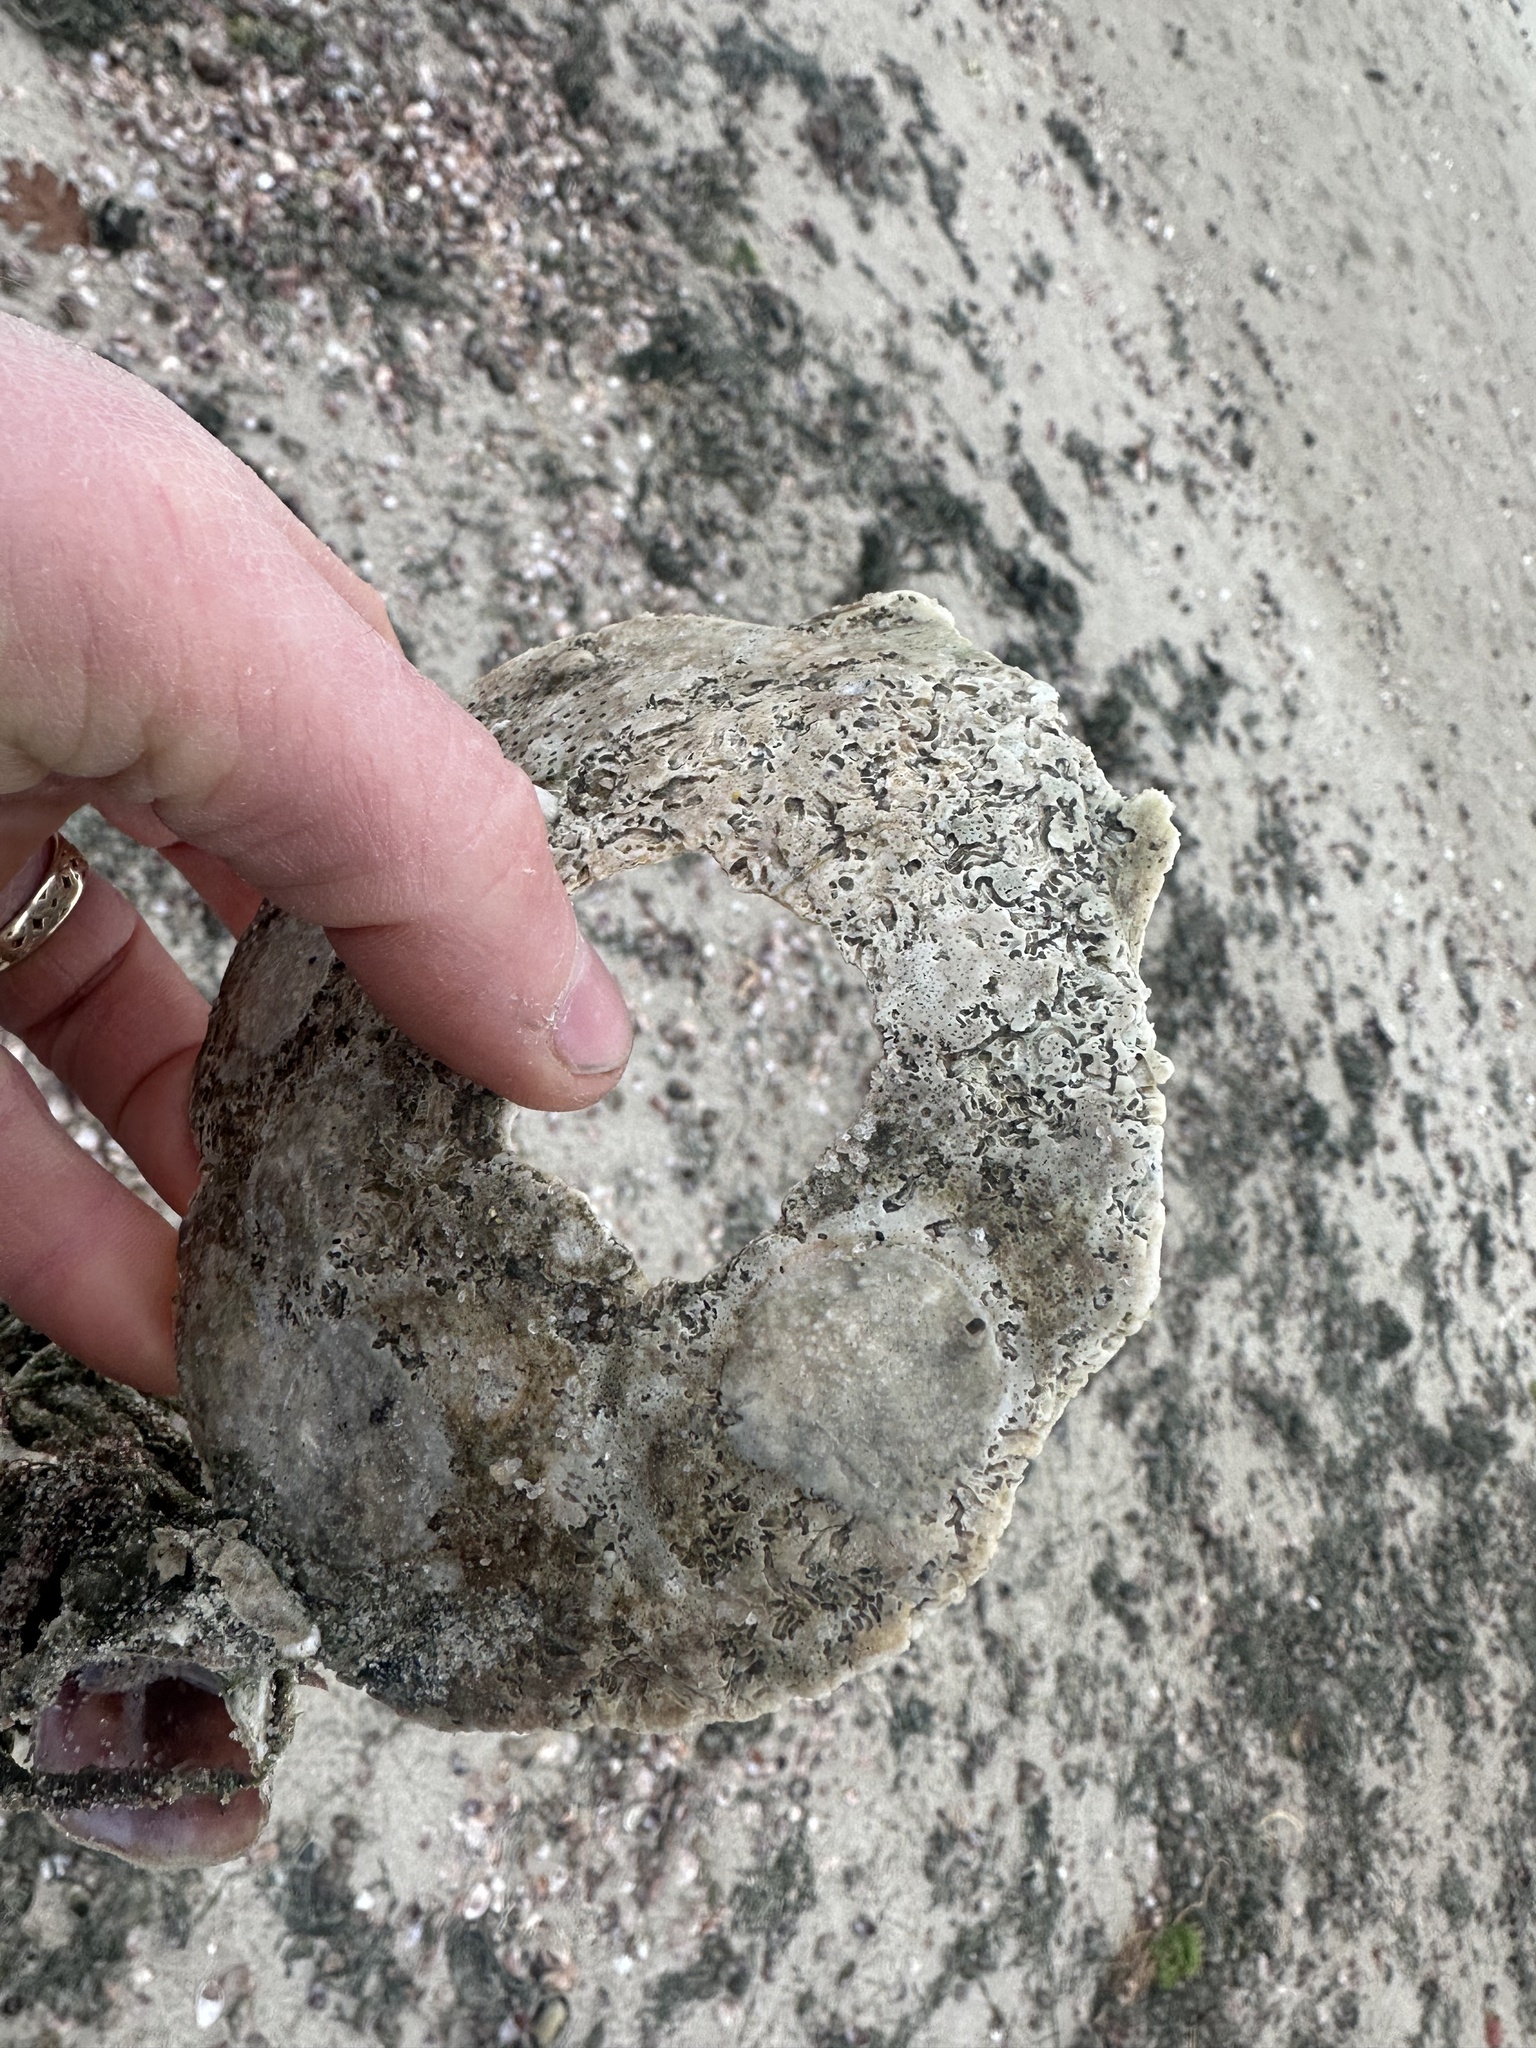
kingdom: Animalia
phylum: Mollusca
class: Bivalvia
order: Pectinida
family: Pectinidae
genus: Placopecten
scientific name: Placopecten magellanicus
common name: American sea scallop
